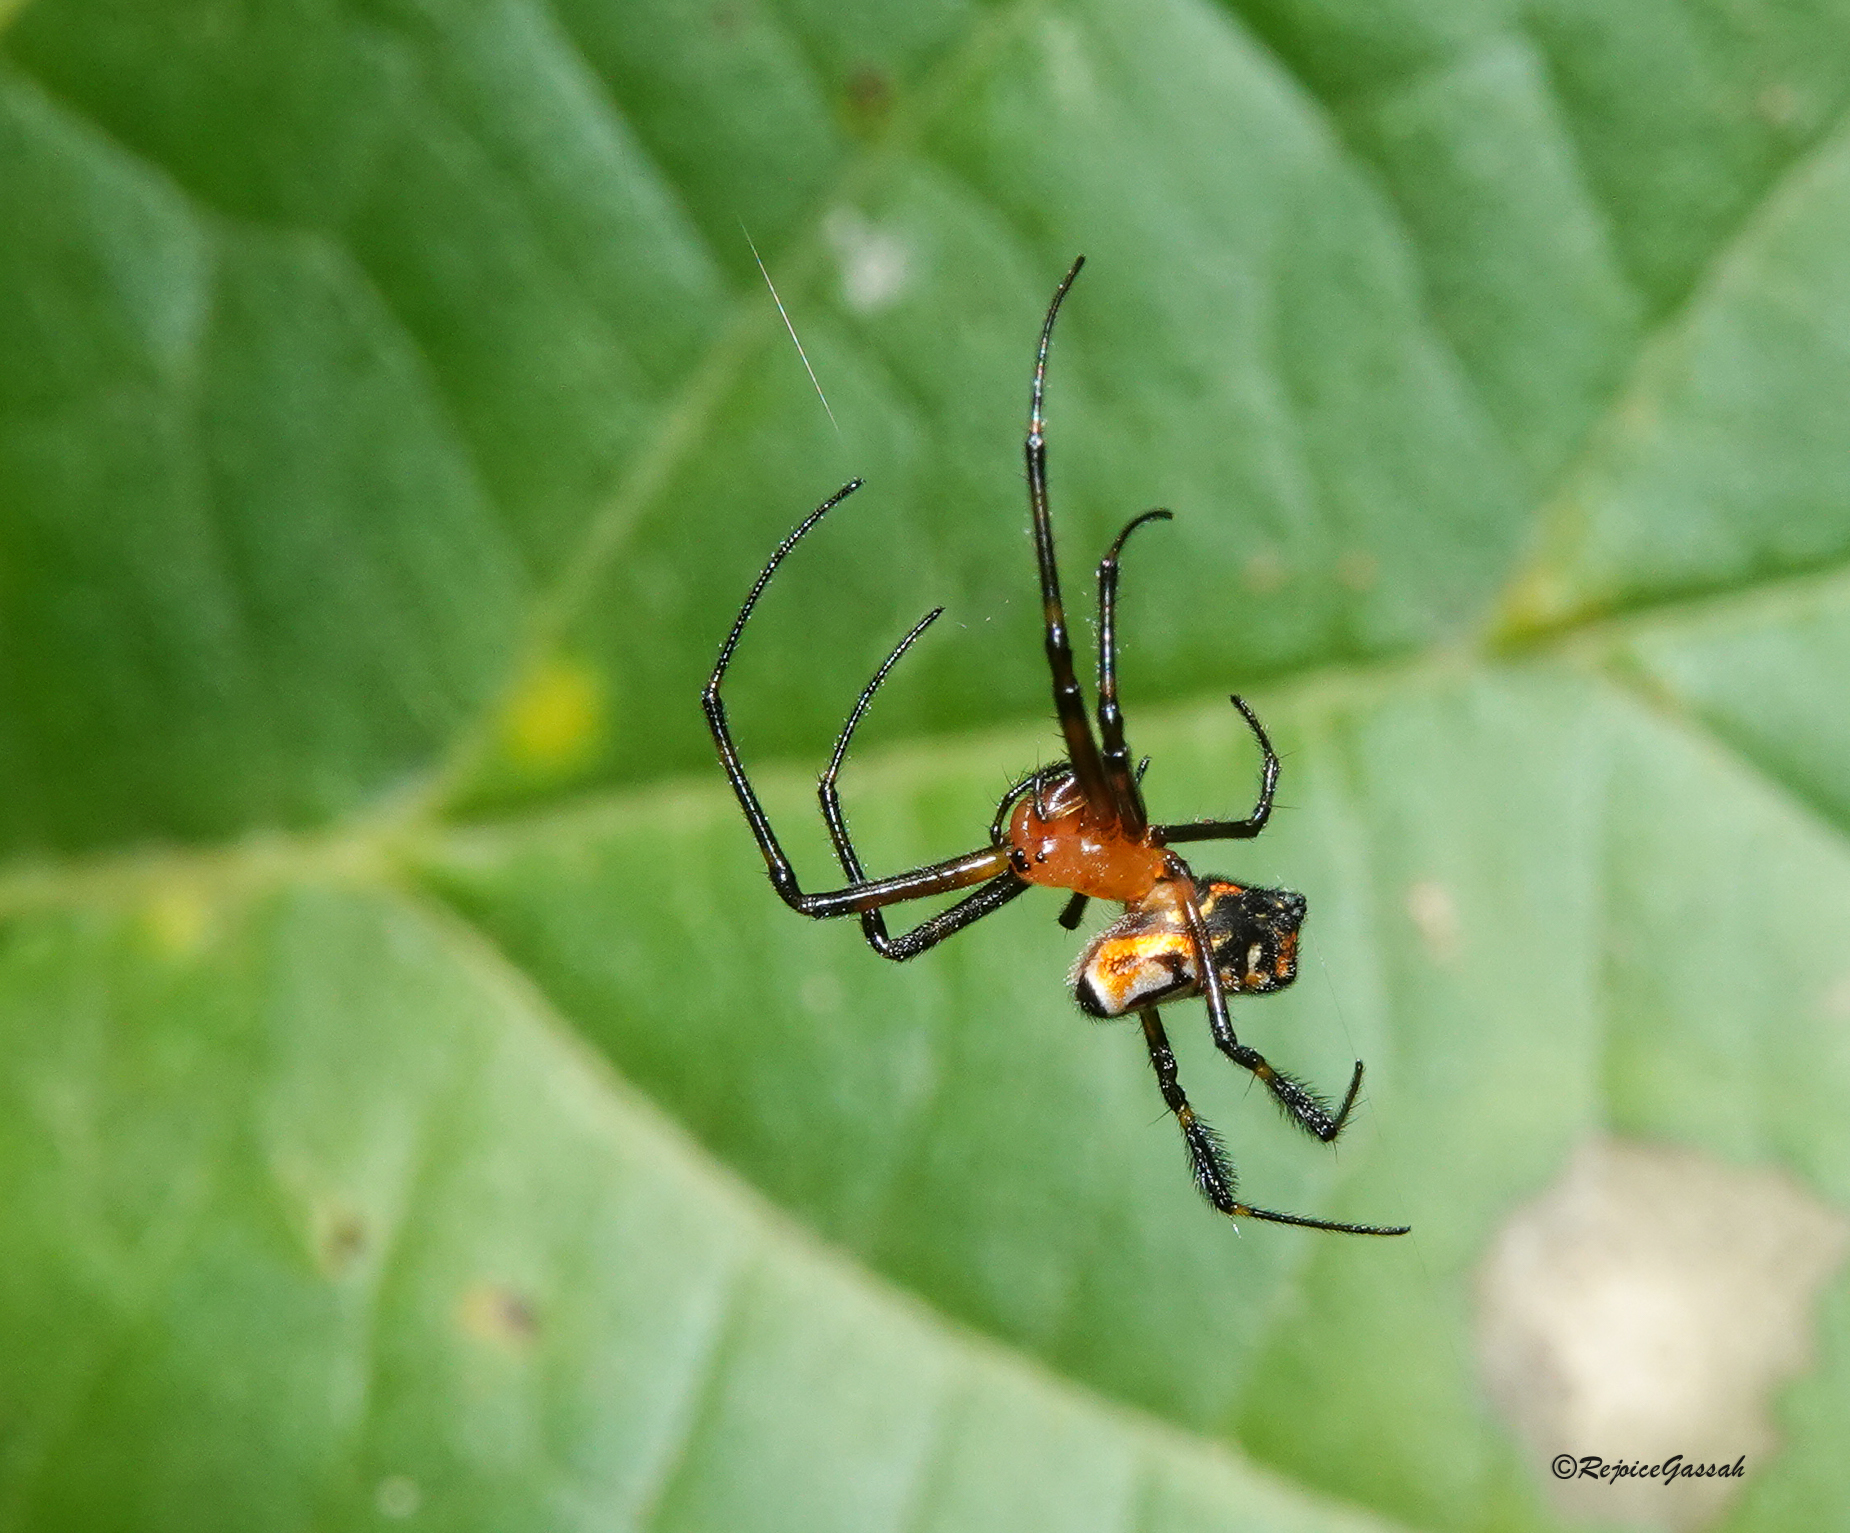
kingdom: Animalia
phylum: Arthropoda
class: Arachnida
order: Araneae
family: Tetragnathidae
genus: Leucauge
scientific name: Leucauge fastigata
